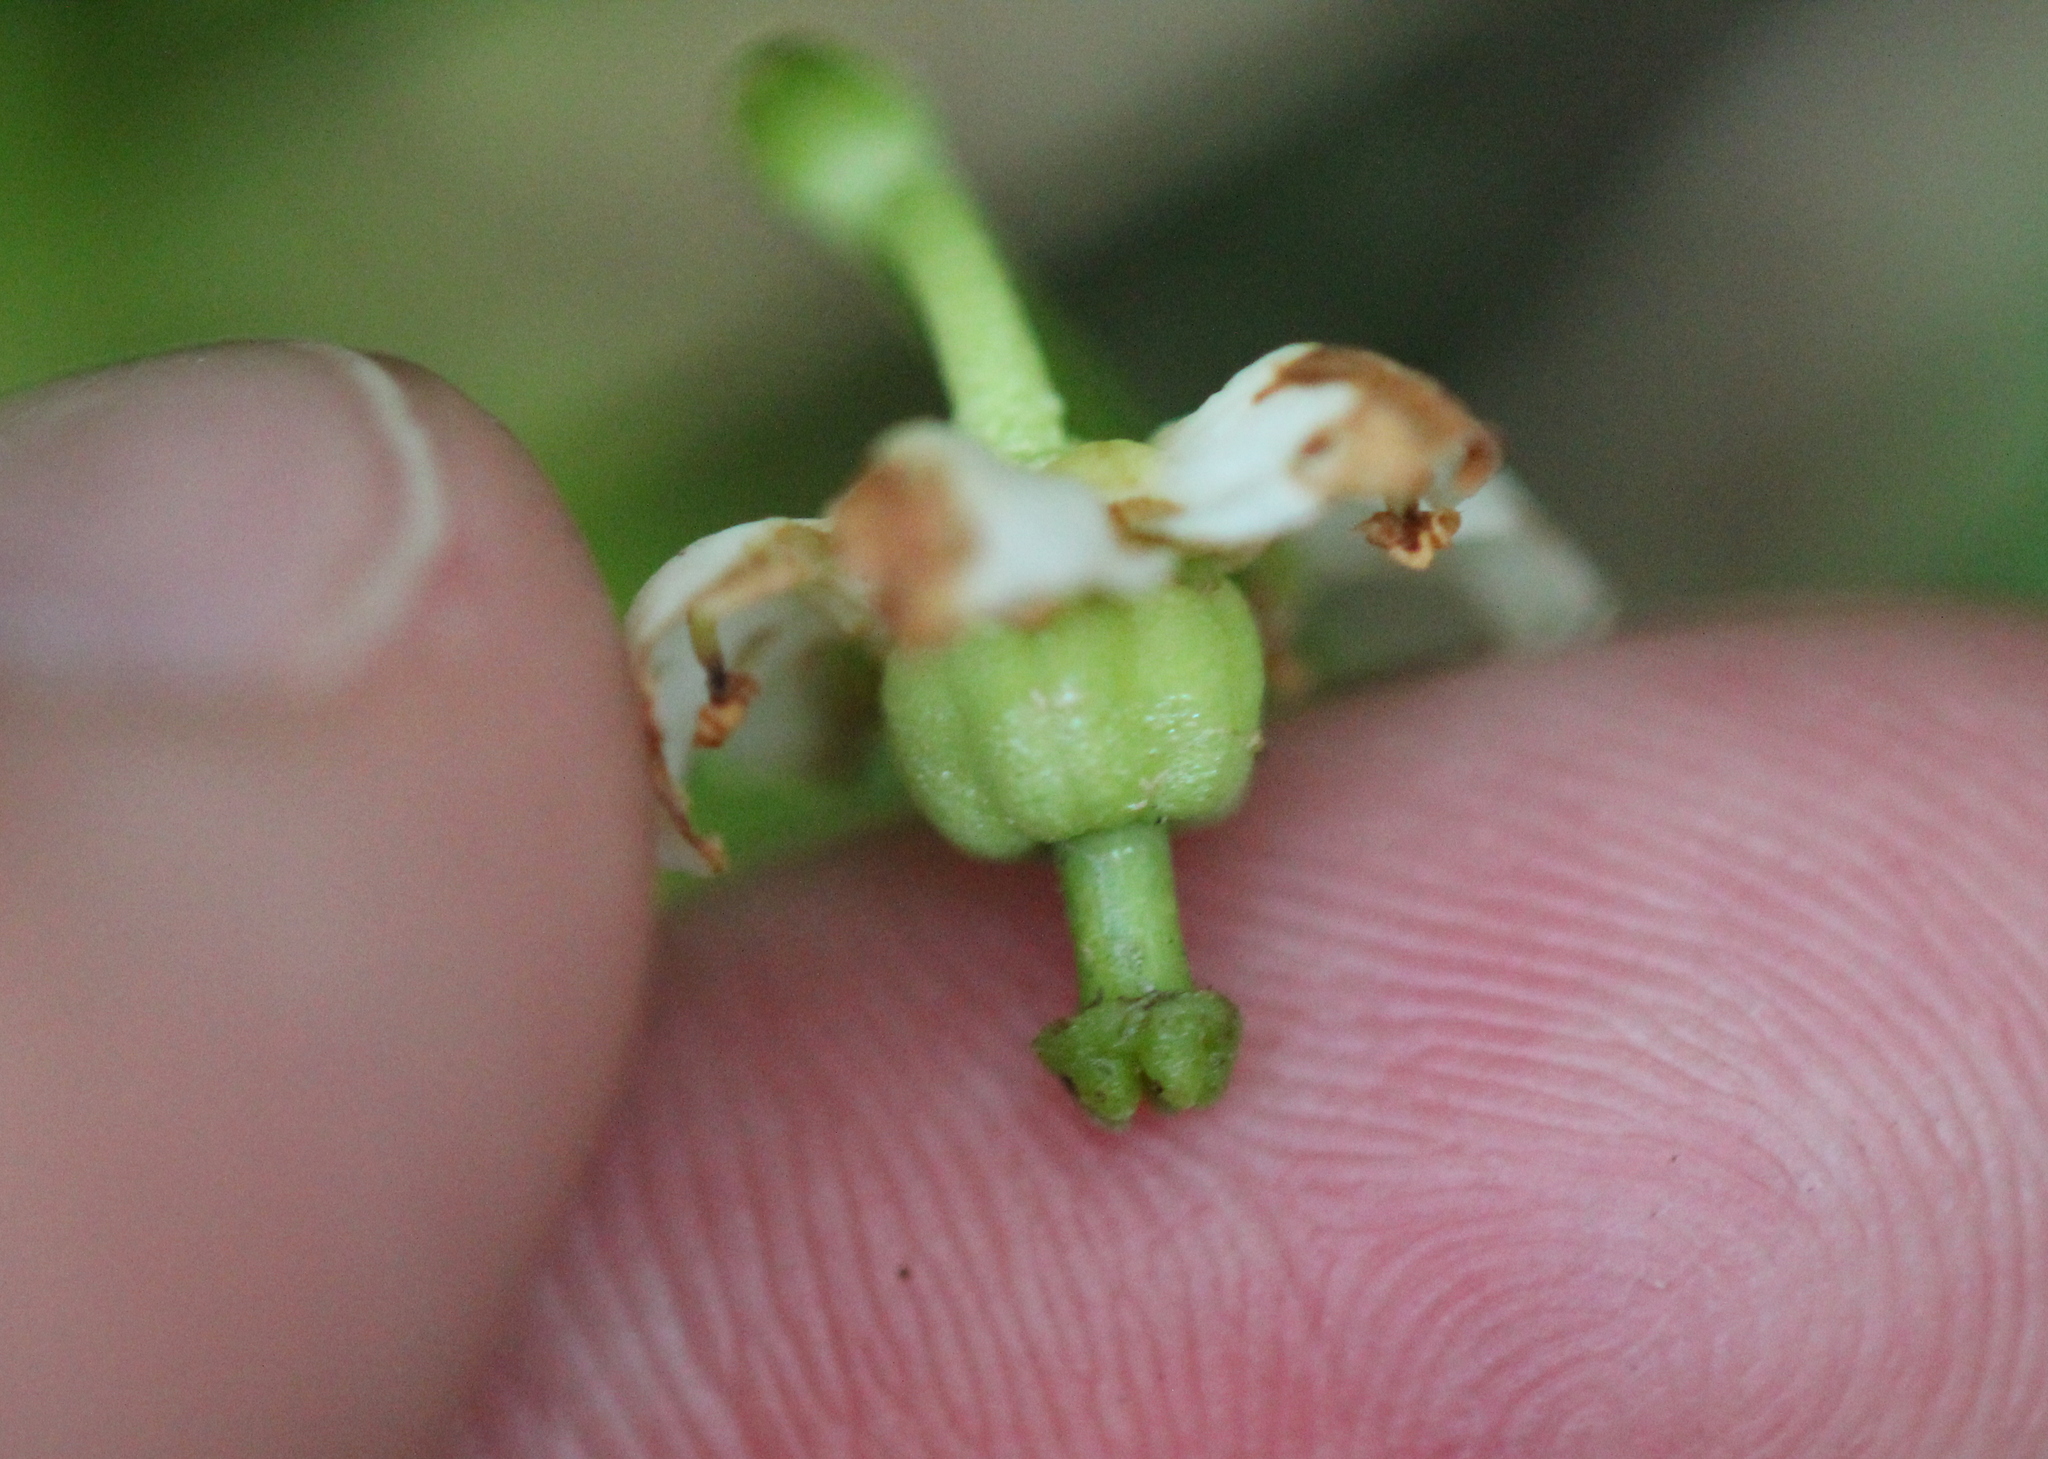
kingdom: Plantae
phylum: Tracheophyta
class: Magnoliopsida
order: Ericales
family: Ericaceae
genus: Moneses
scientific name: Moneses uniflora
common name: One-flowered wintergreen
